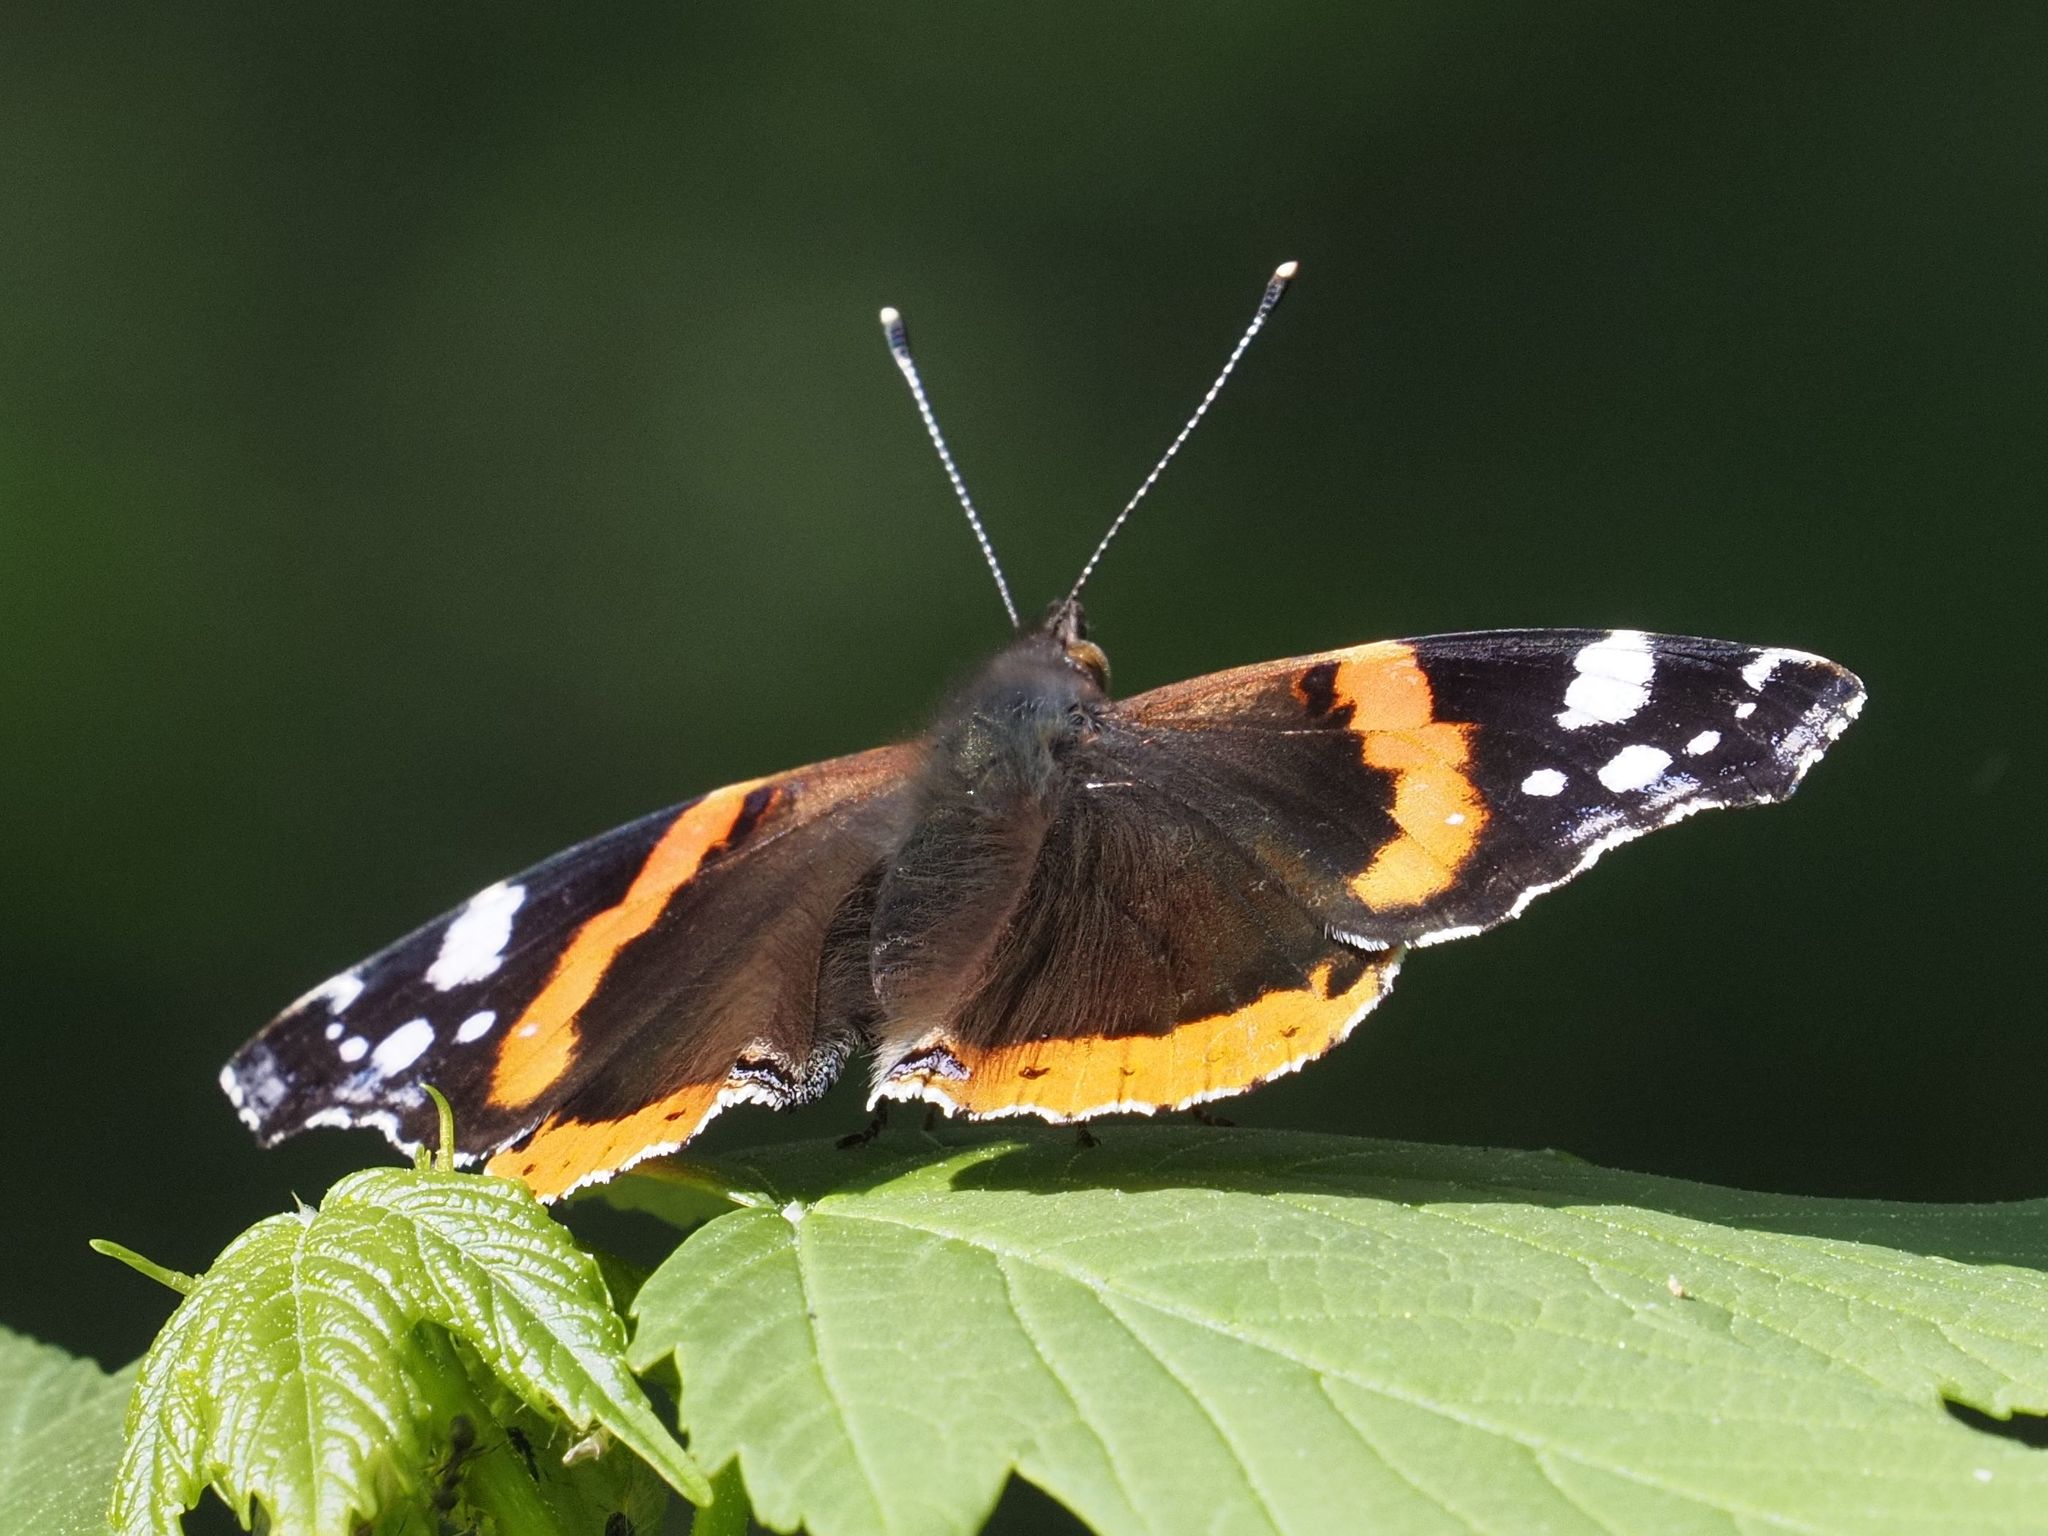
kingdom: Animalia
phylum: Arthropoda
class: Insecta
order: Lepidoptera
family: Nymphalidae
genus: Vanessa
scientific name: Vanessa atalanta
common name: Red admiral
